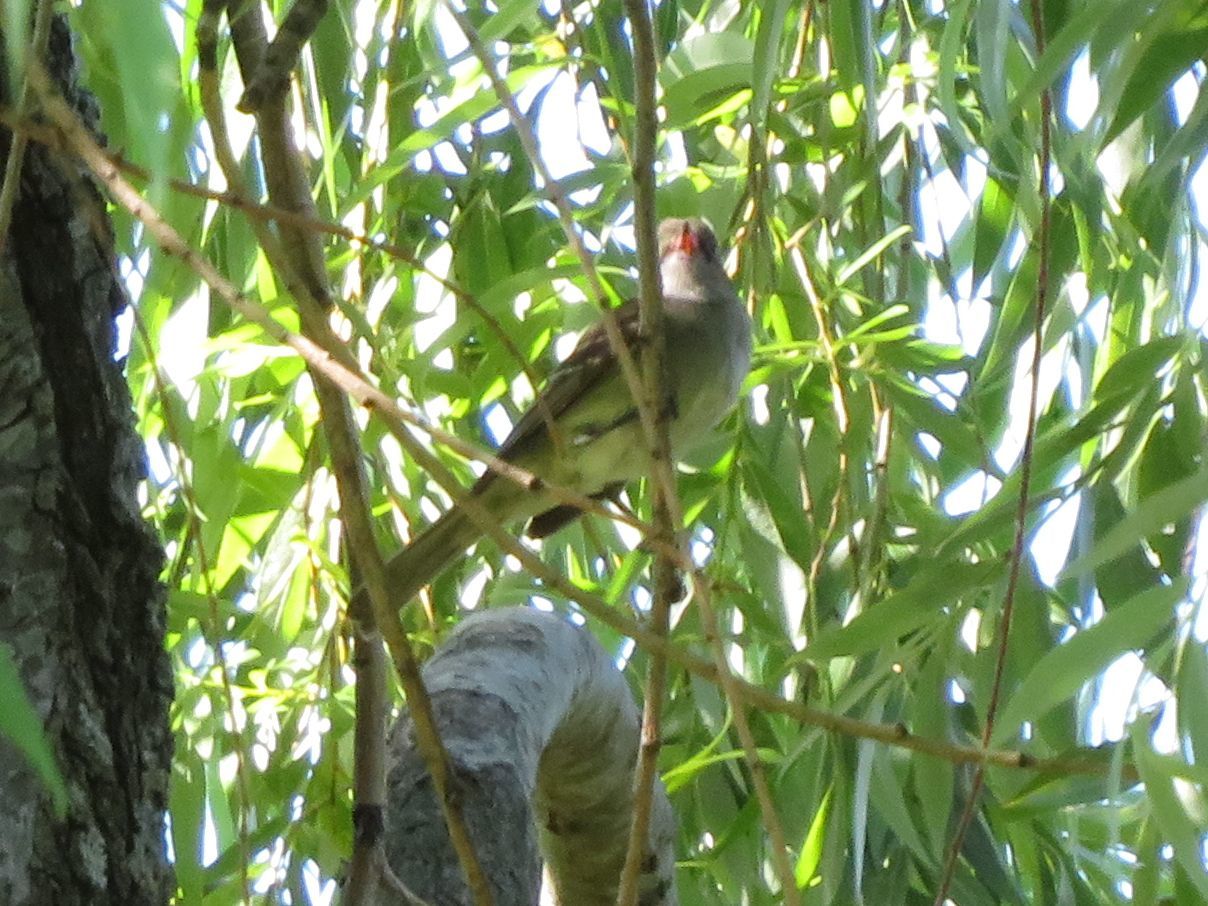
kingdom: Animalia
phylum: Chordata
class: Aves
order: Passeriformes
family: Tyrannidae
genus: Elaenia
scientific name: Elaenia parvirostris
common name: Small-billed elaenia
